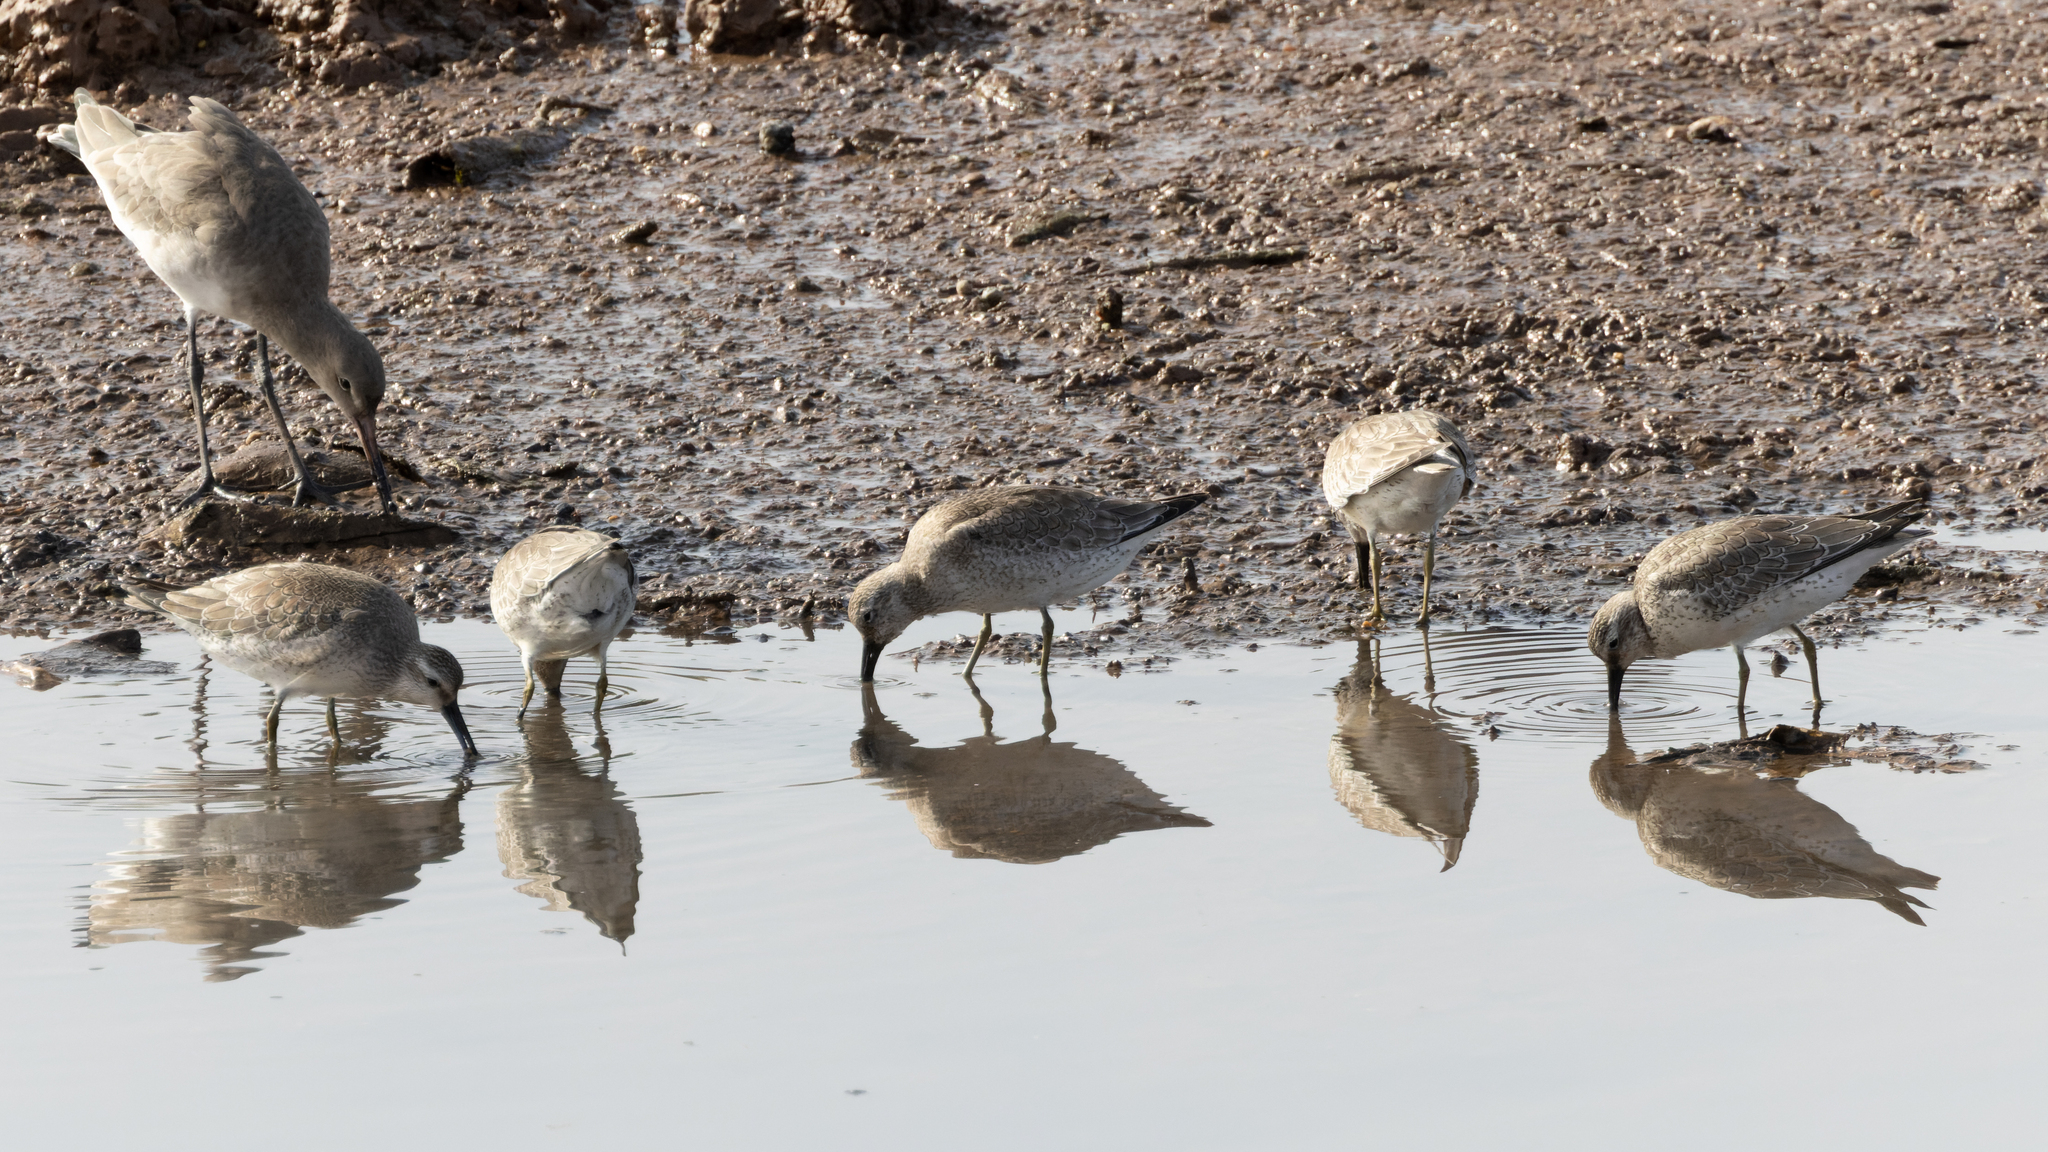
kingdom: Animalia
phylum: Chordata
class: Aves
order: Charadriiformes
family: Scolopacidae
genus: Calidris
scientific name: Calidris canutus
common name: Red knot
